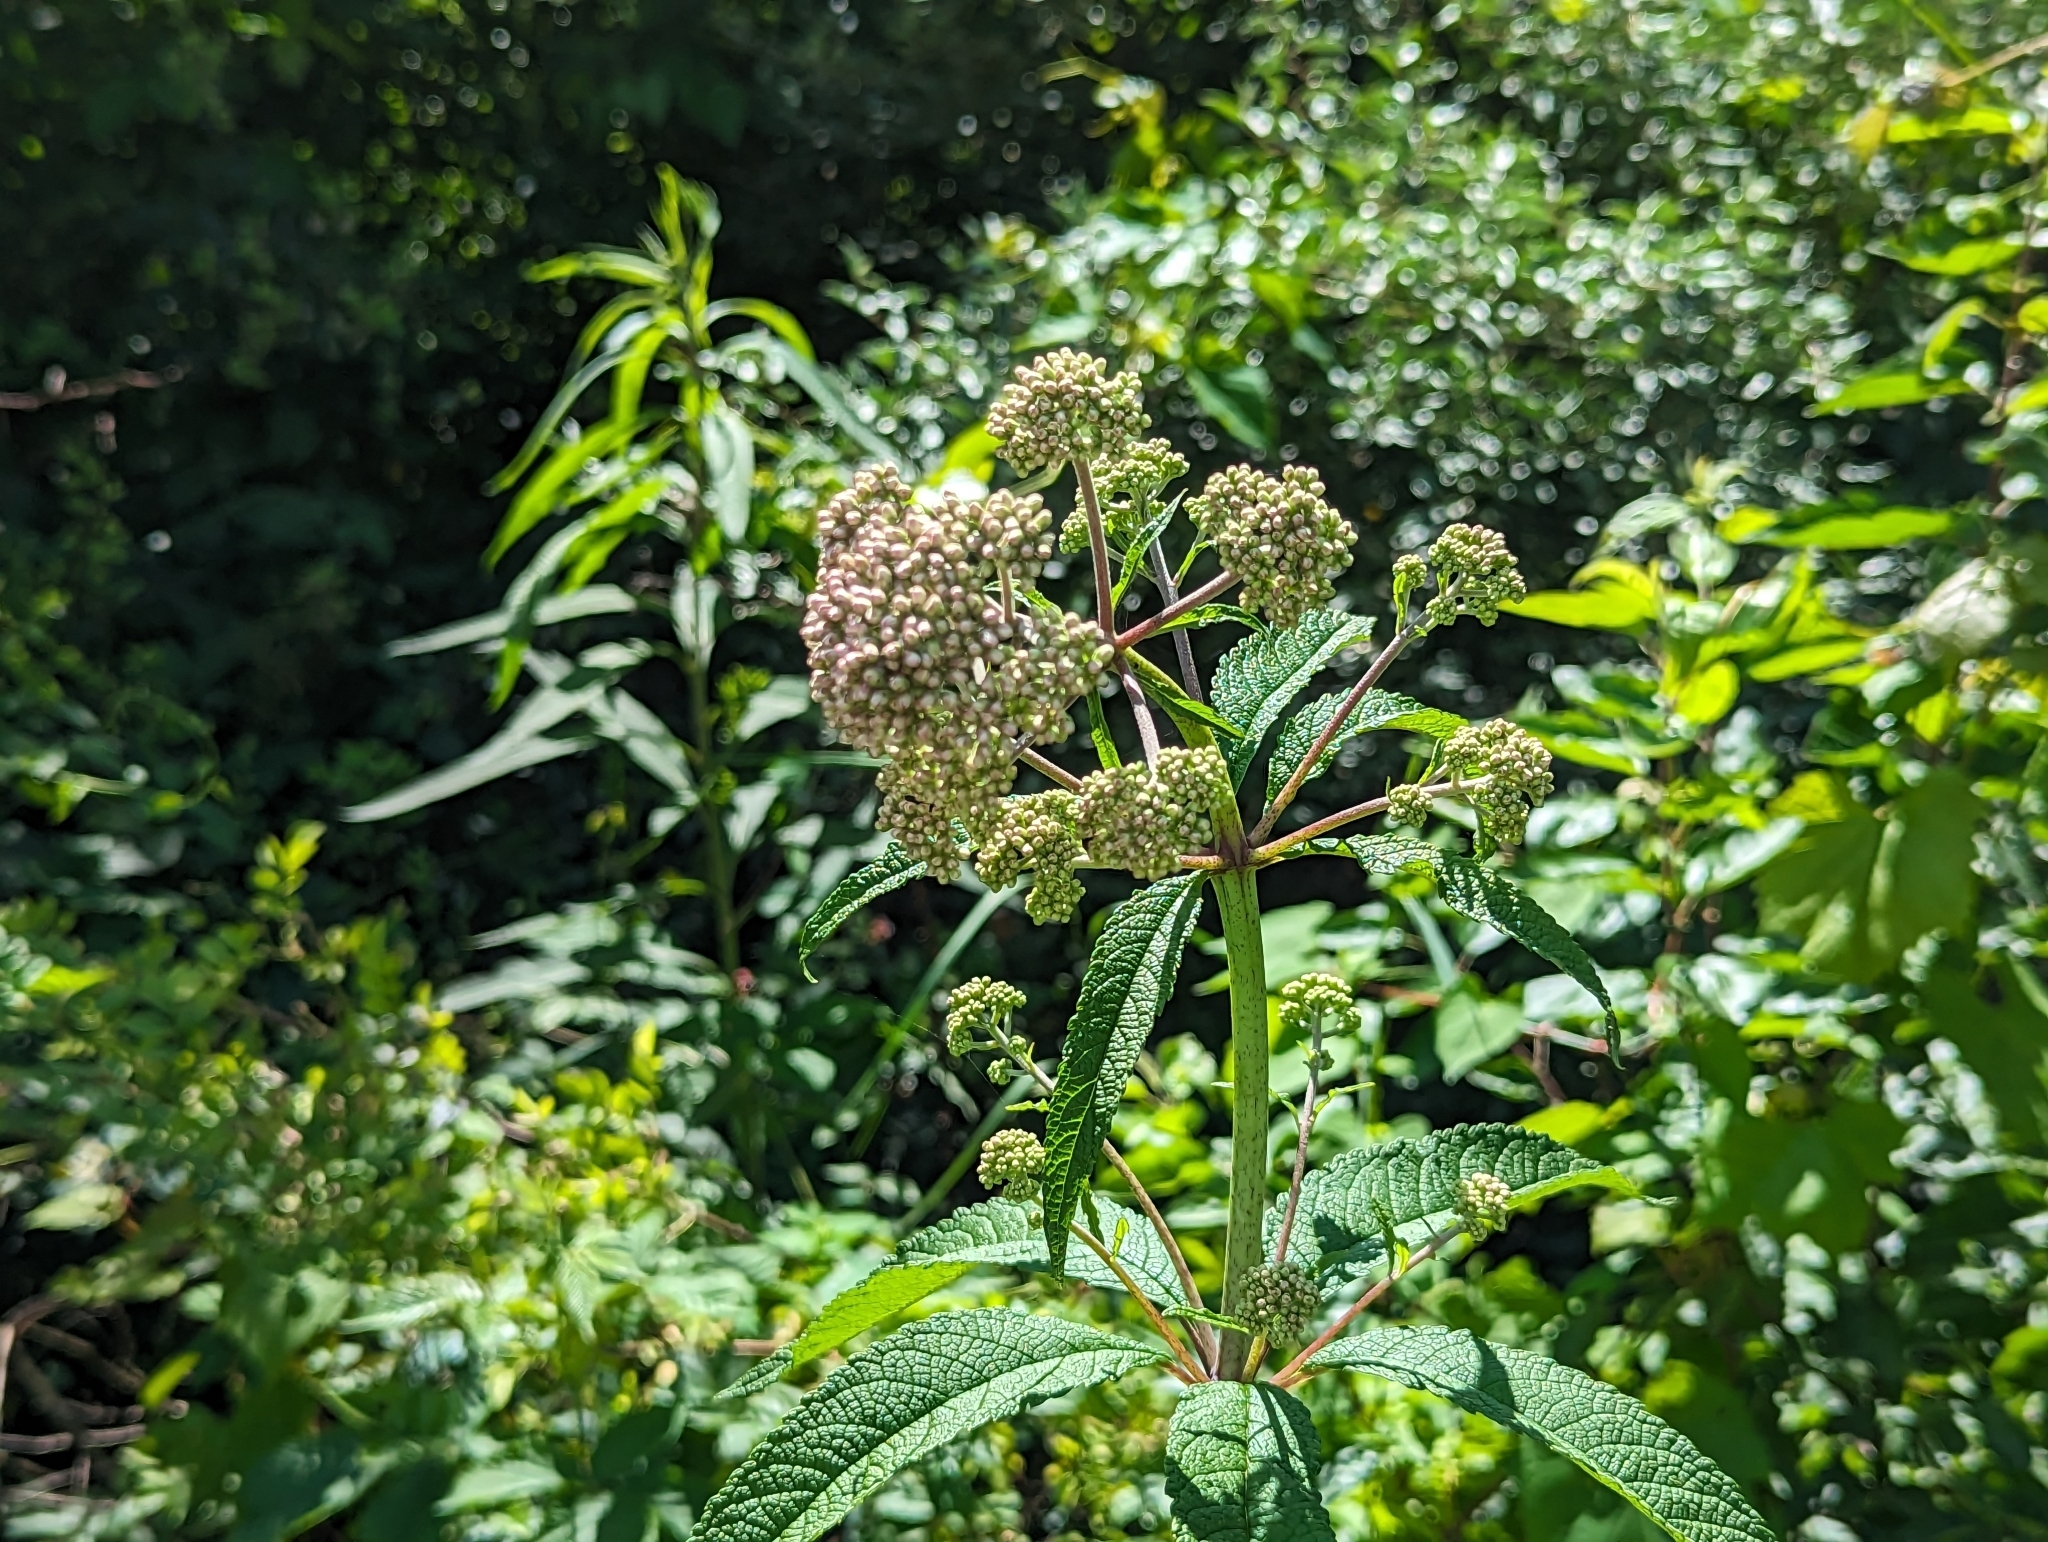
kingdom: Plantae
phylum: Tracheophyta
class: Magnoliopsida
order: Asterales
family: Asteraceae
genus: Eutrochium
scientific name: Eutrochium fistulosum
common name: Trumpetweed
